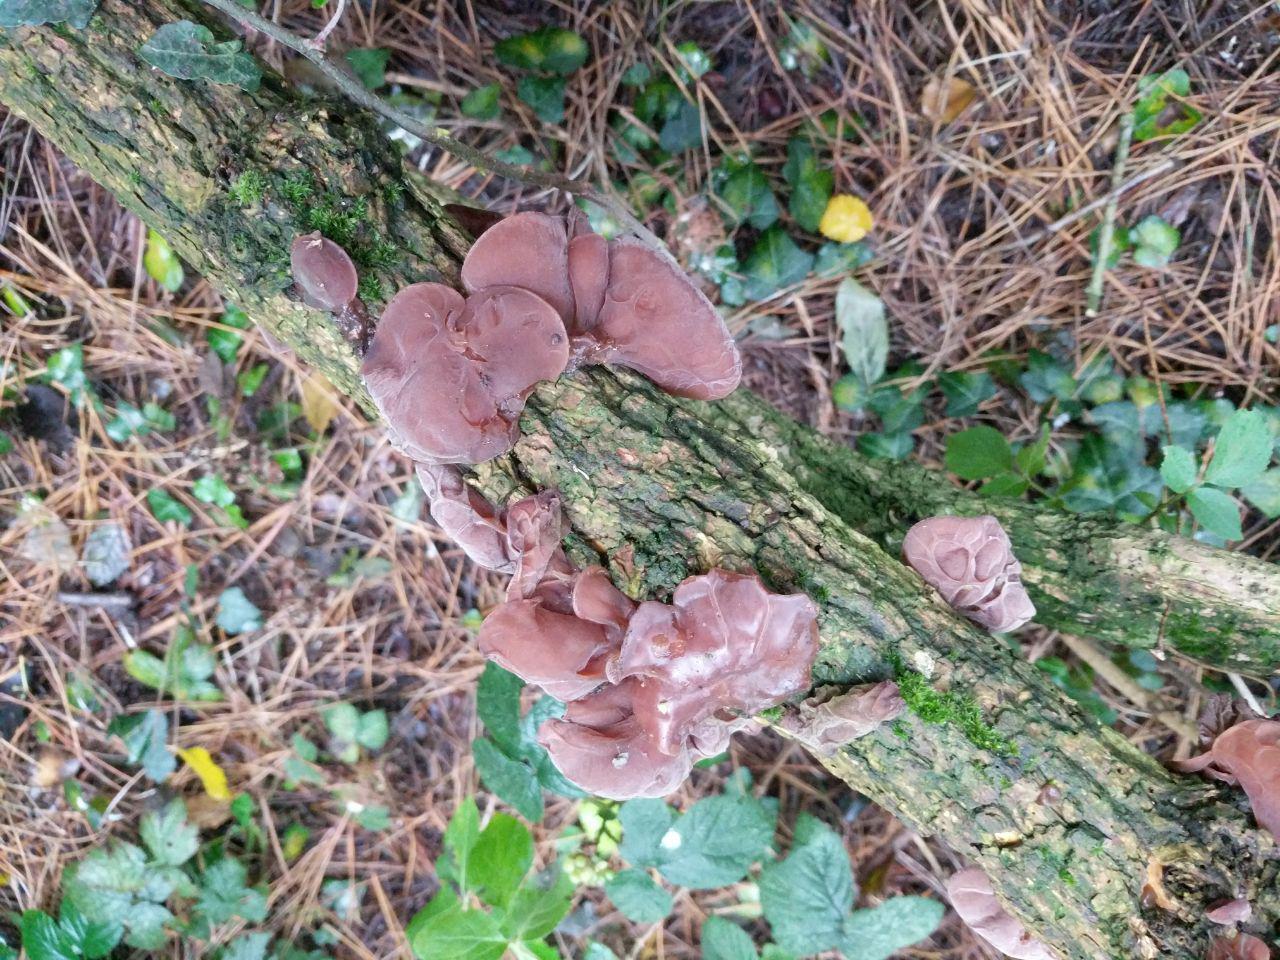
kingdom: Fungi
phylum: Basidiomycota
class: Agaricomycetes
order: Auriculariales
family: Auriculariaceae
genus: Auricularia
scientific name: Auricularia auricula-judae
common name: Jelly ear
